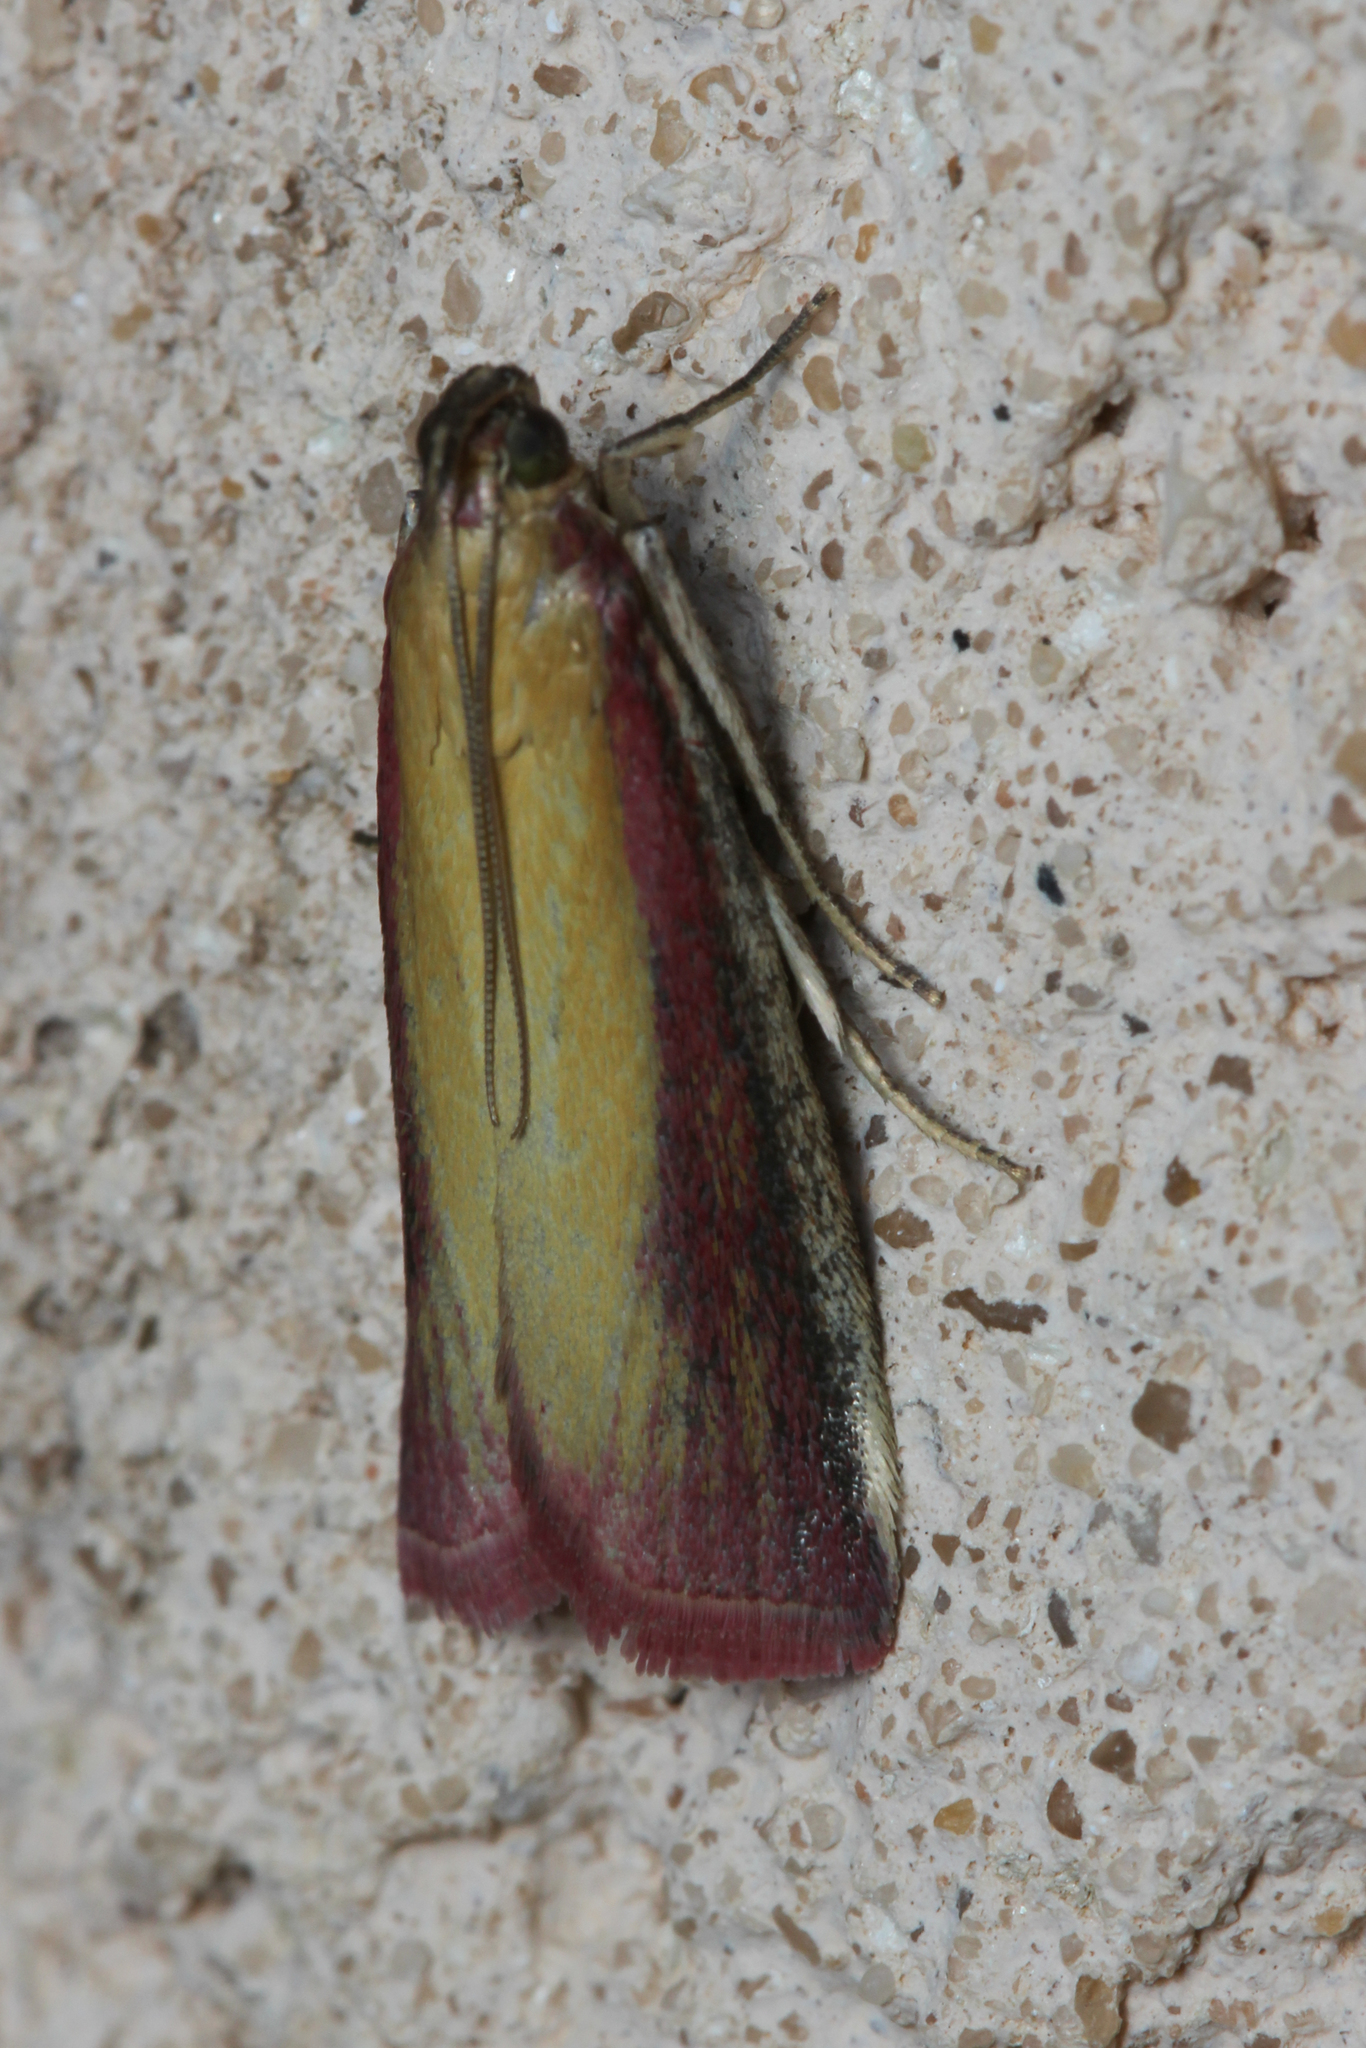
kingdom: Animalia
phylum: Arthropoda
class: Insecta
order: Lepidoptera
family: Pyralidae
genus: Oncocera
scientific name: Oncocera semirubella
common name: Rosy-striped knot-horn
